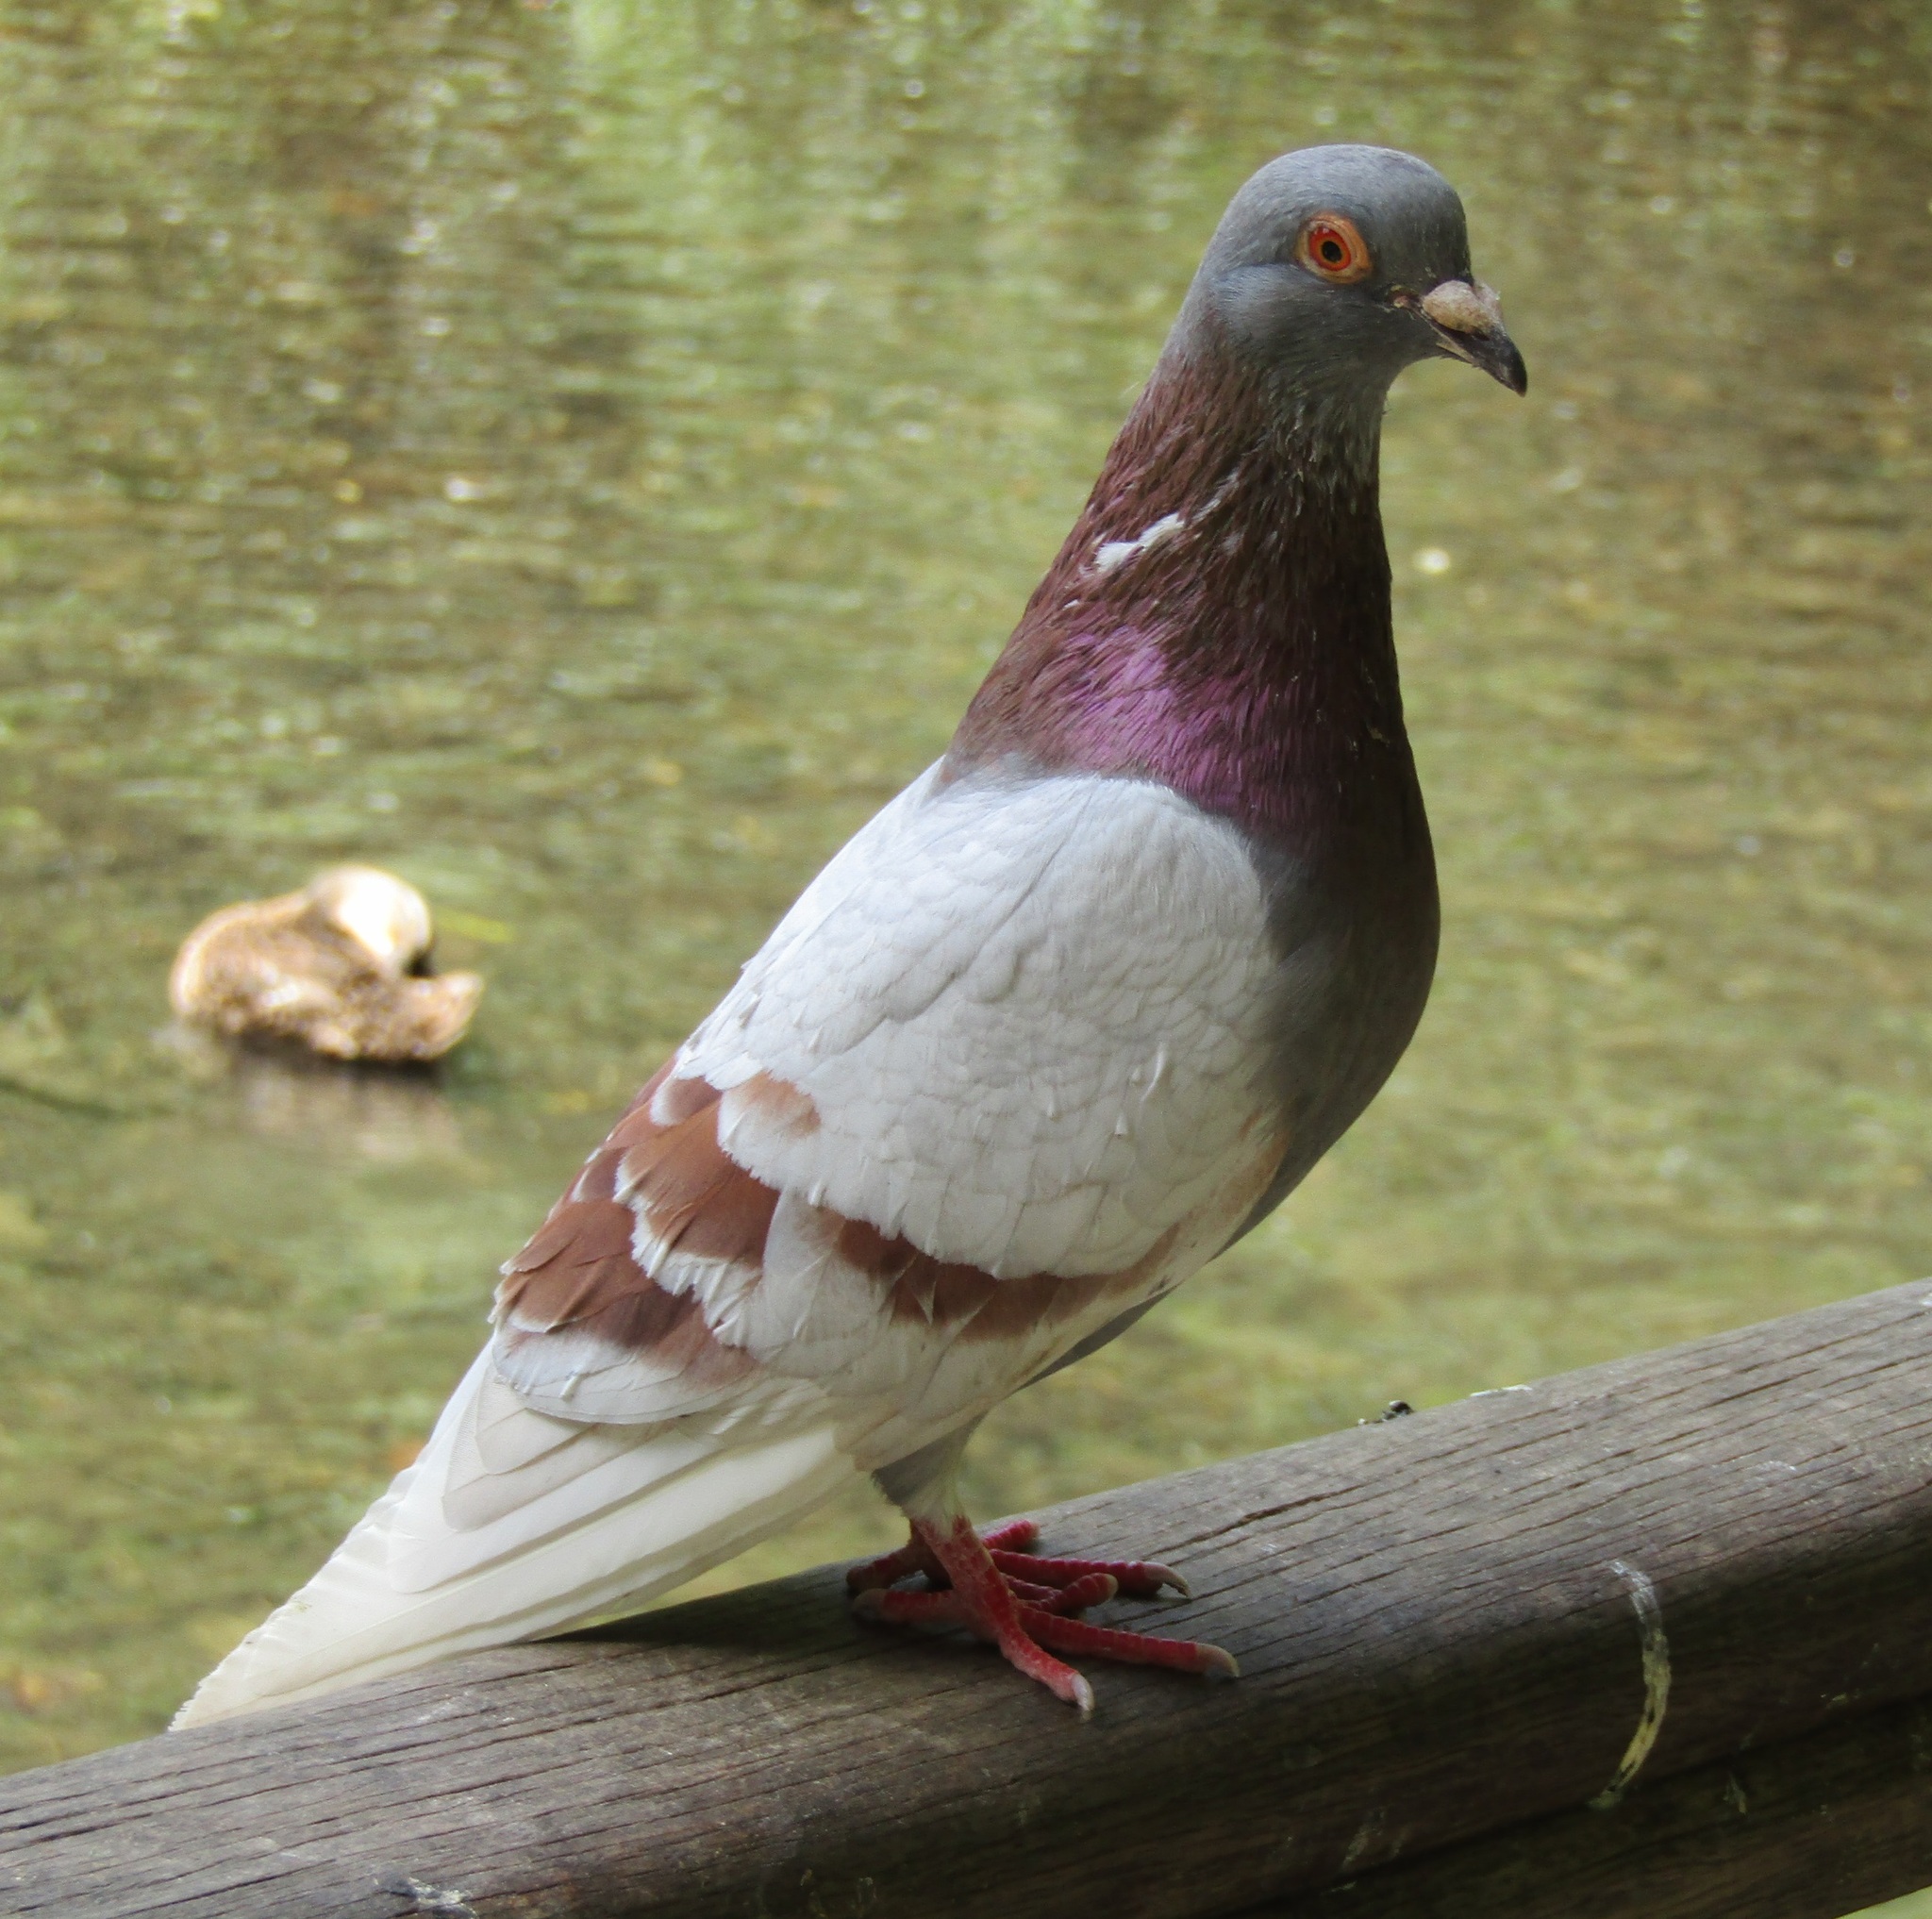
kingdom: Animalia
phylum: Chordata
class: Aves
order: Columbiformes
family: Columbidae
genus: Columba
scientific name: Columba livia
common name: Rock pigeon
